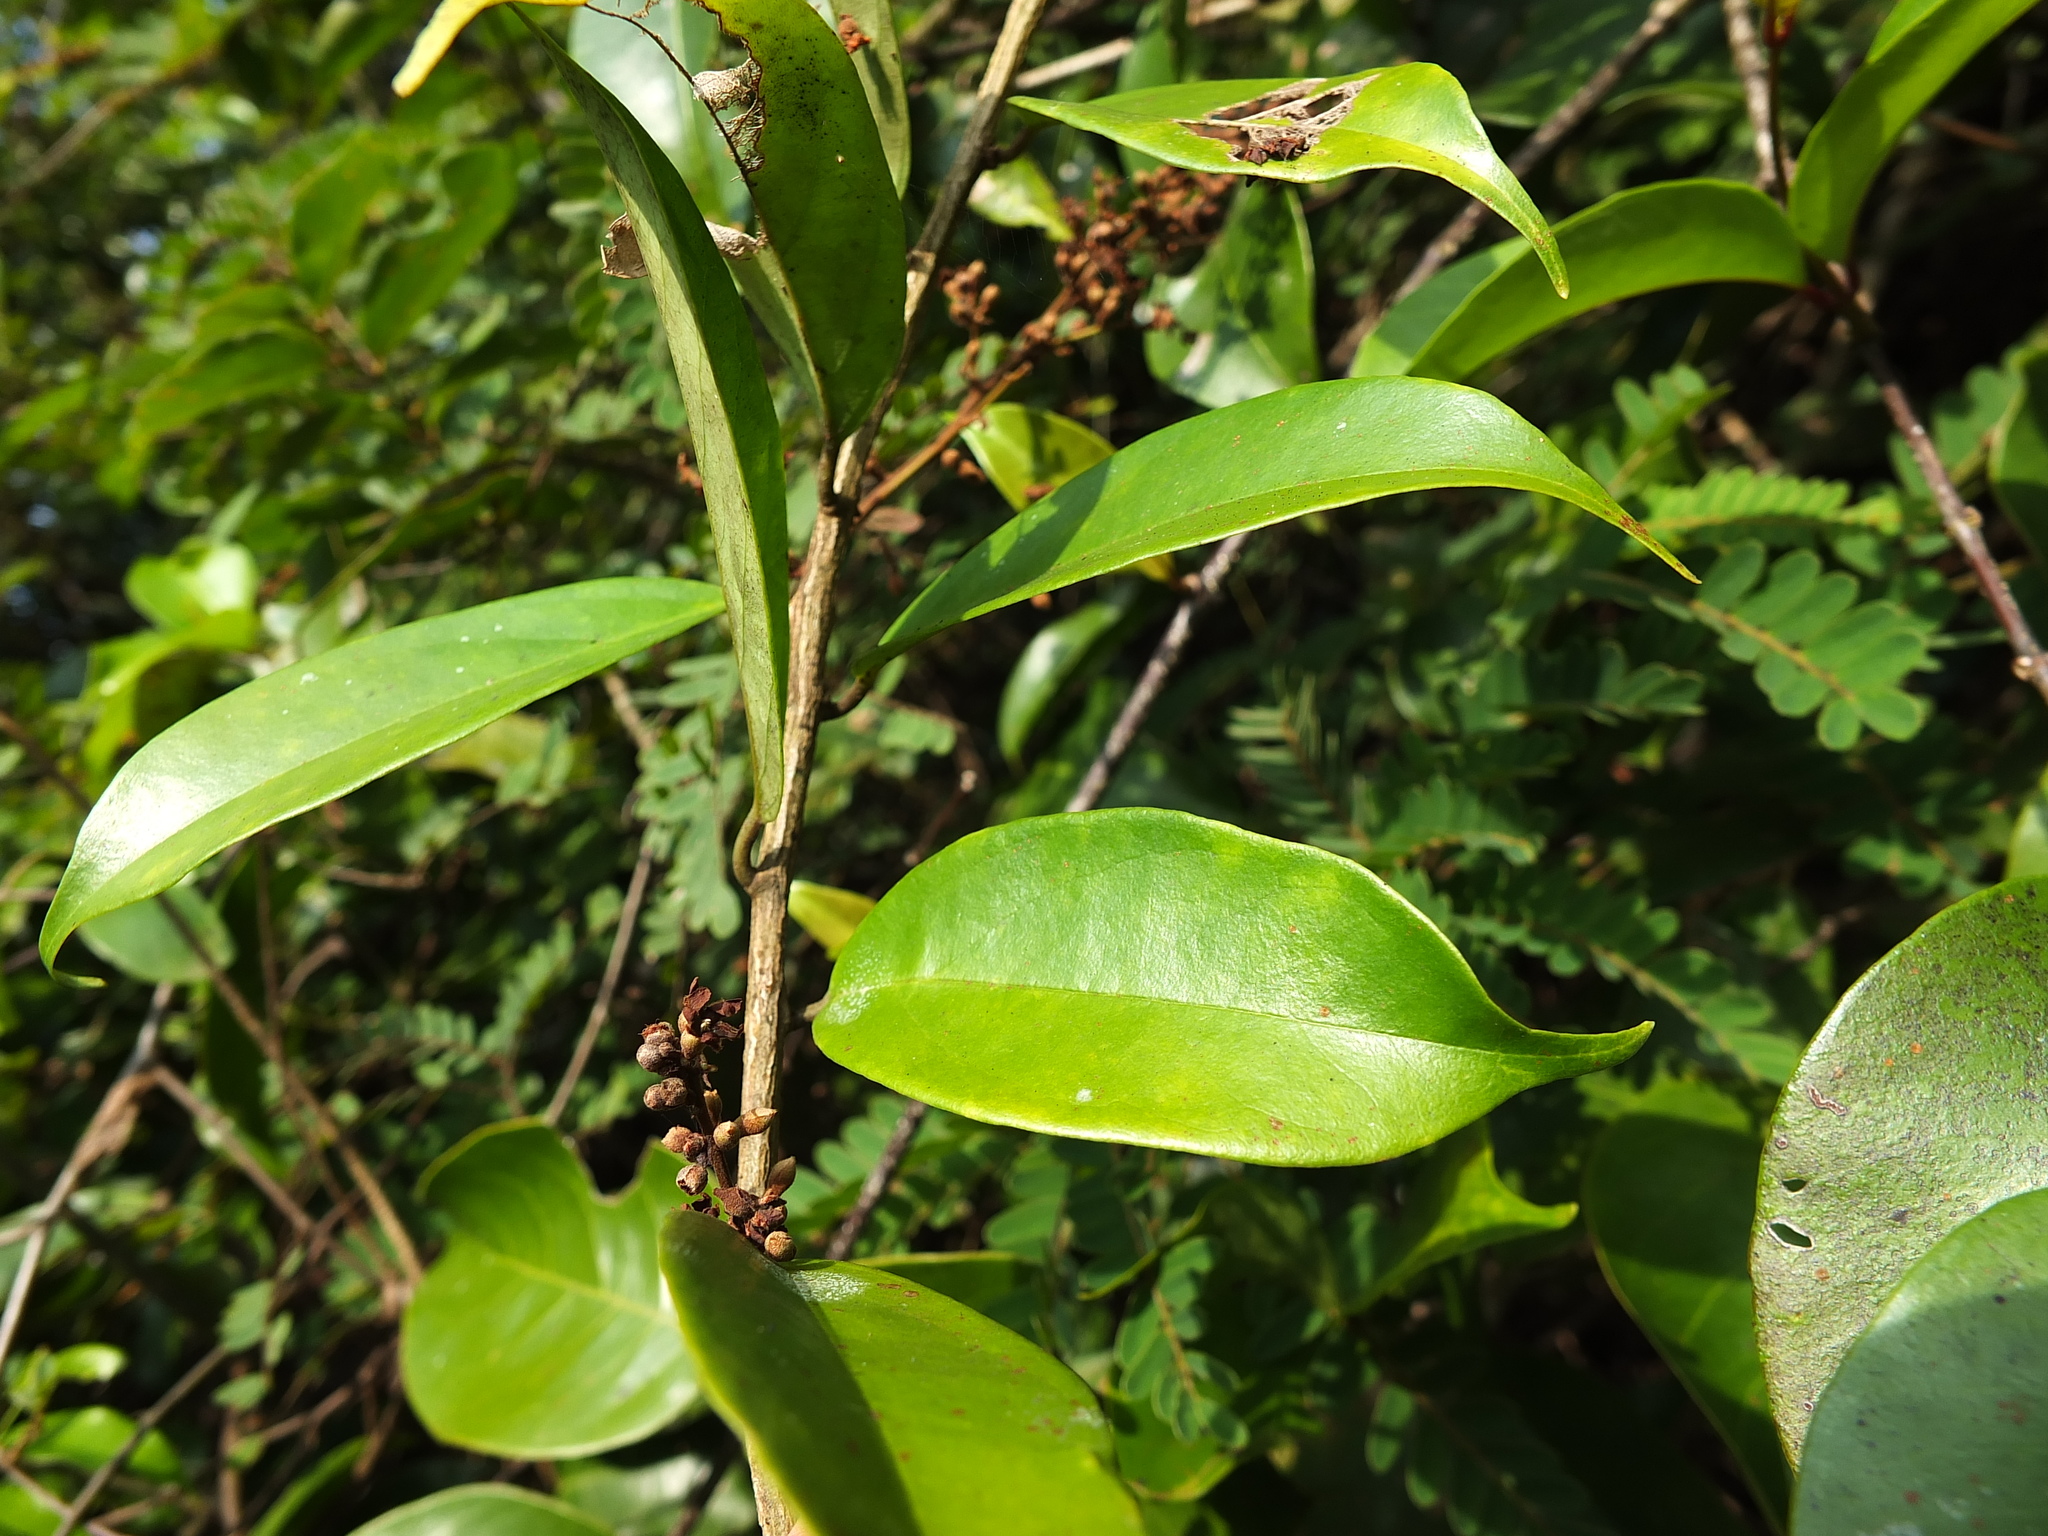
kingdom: Plantae
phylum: Tracheophyta
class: Magnoliopsida
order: Solanales
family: Convolvulaceae
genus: Erycibe
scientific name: Erycibe paniculata
